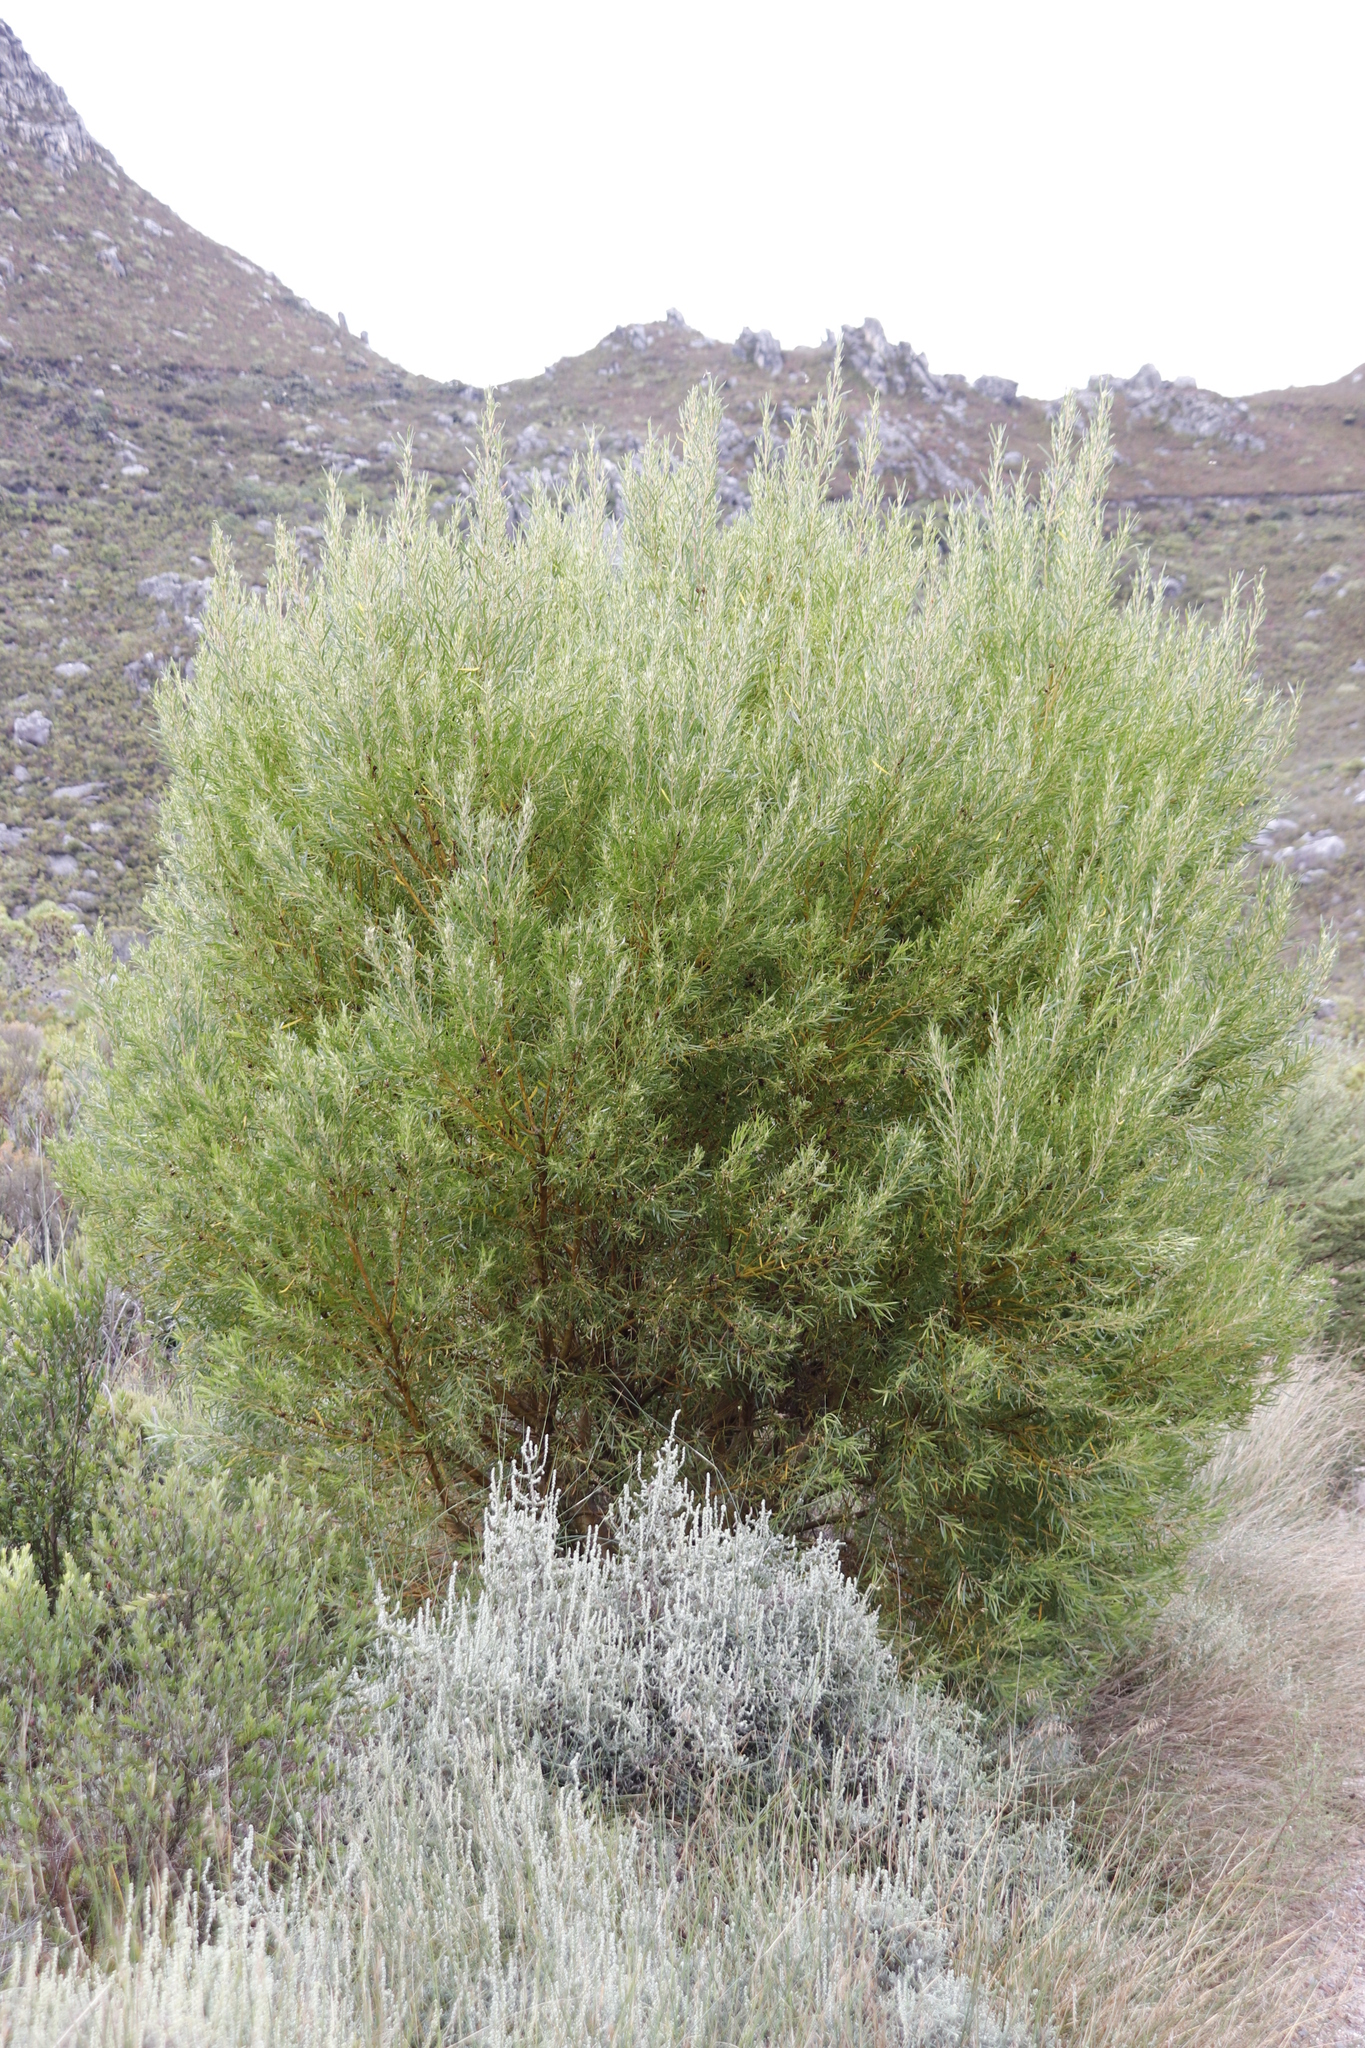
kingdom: Plantae
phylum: Tracheophyta
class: Magnoliopsida
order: Proteales
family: Proteaceae
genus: Leucadendron
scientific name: Leucadendron salicifolium
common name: Common stream conebush
